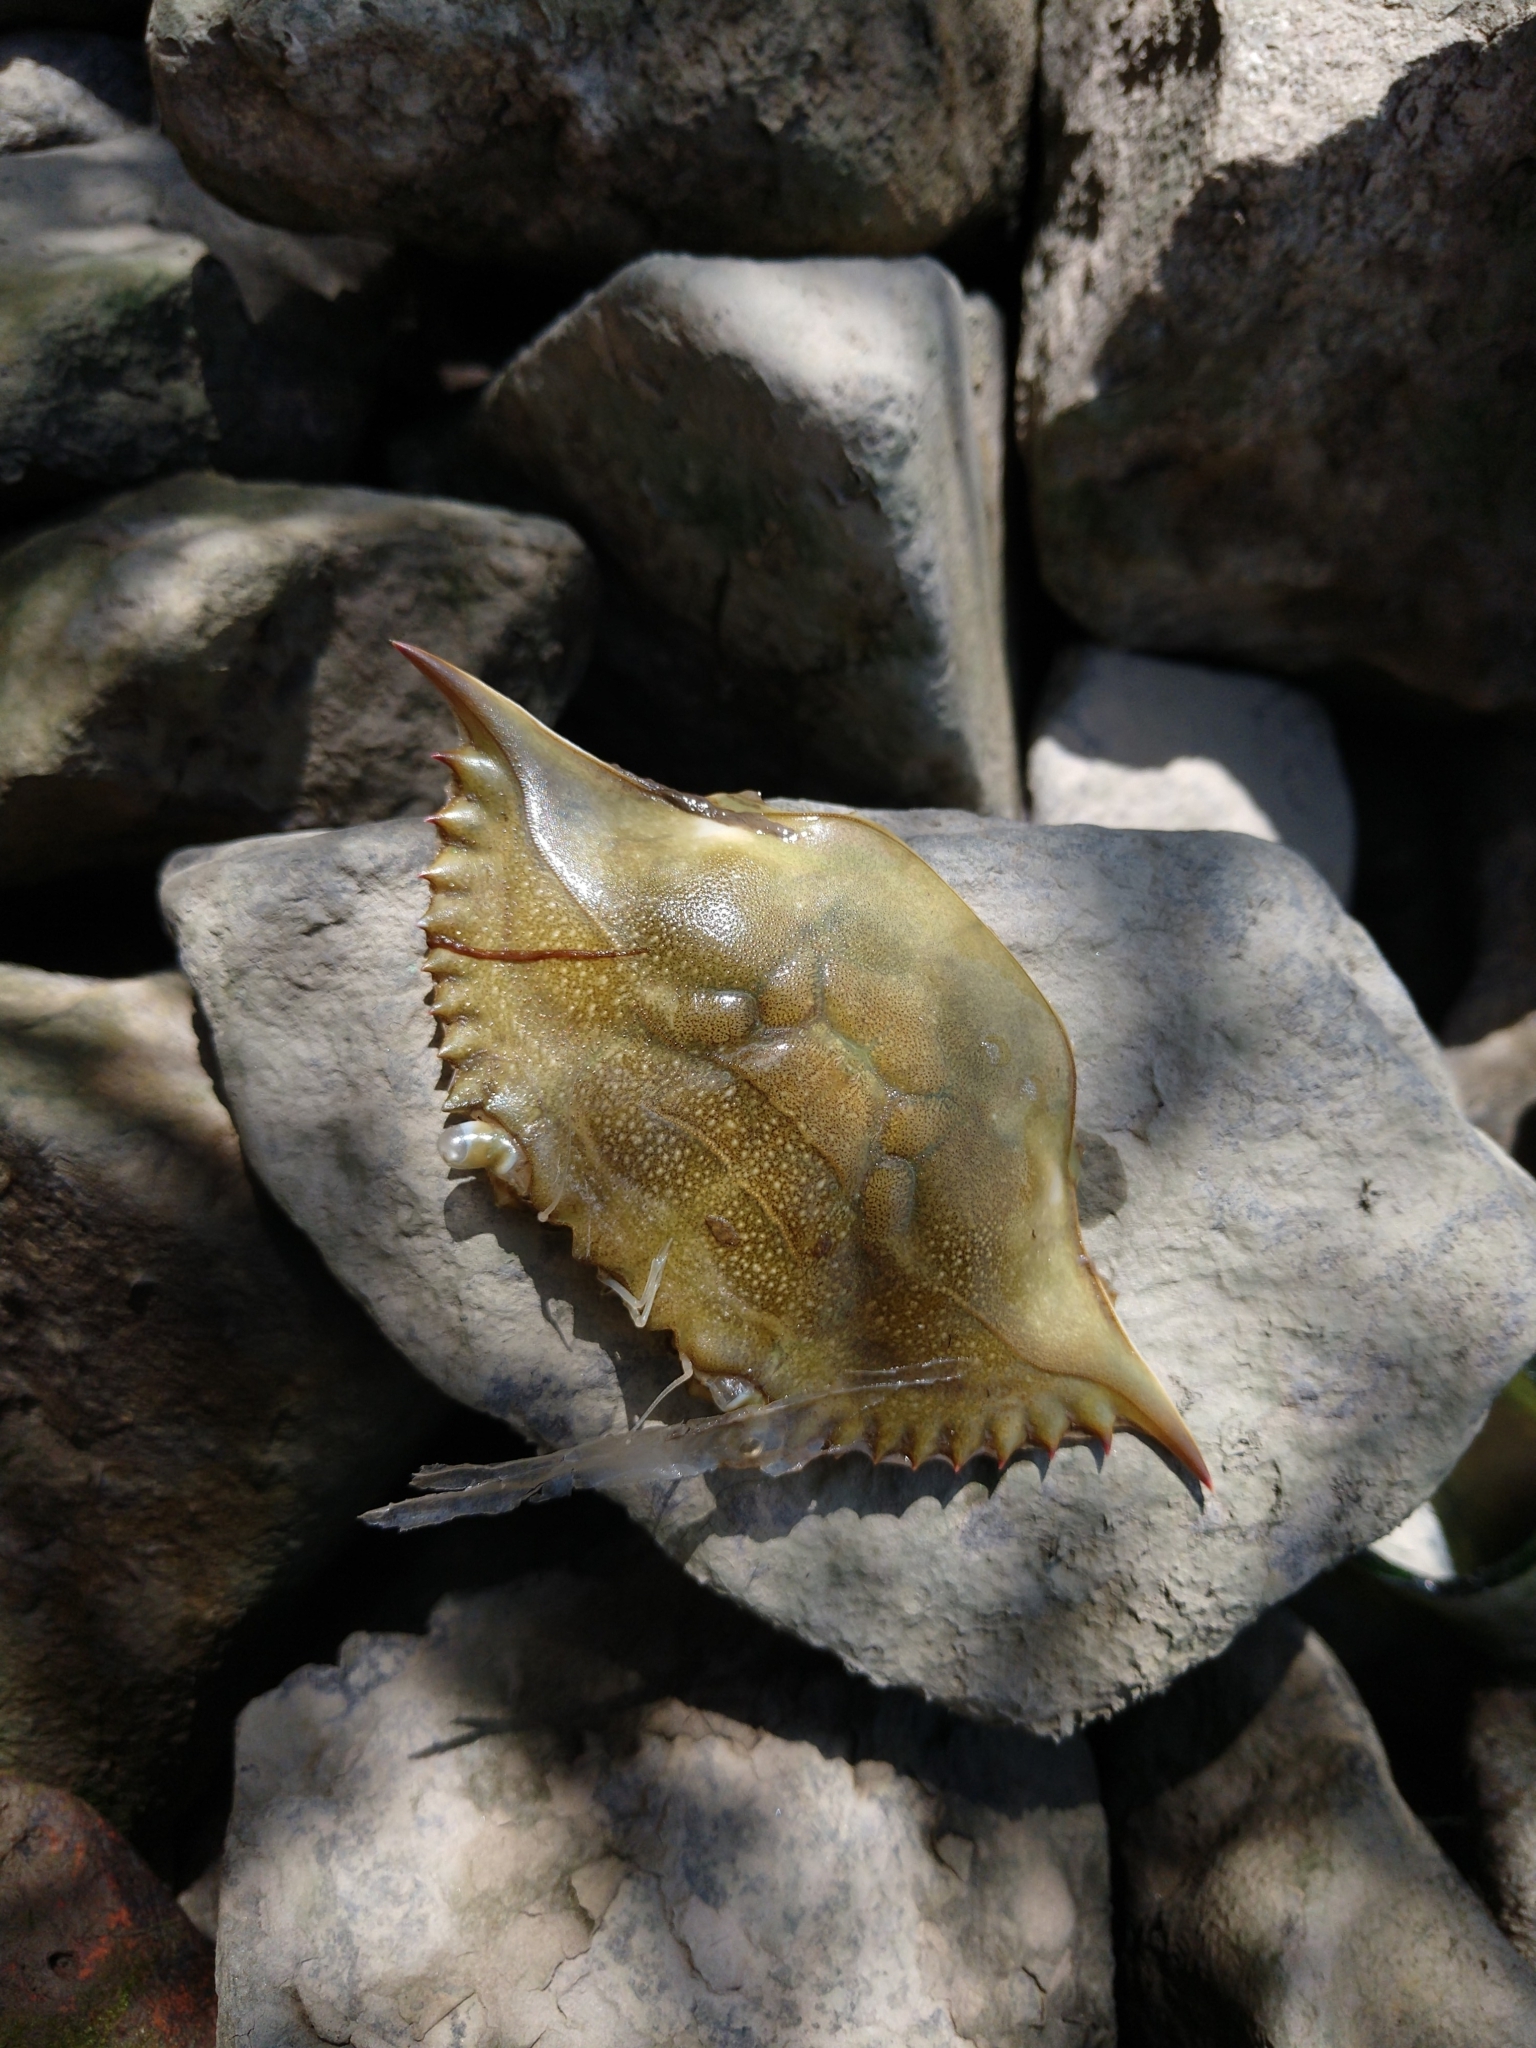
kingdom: Animalia
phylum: Arthropoda
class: Malacostraca
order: Decapoda
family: Portunidae
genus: Callinectes
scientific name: Callinectes sapidus
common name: Blue crab
